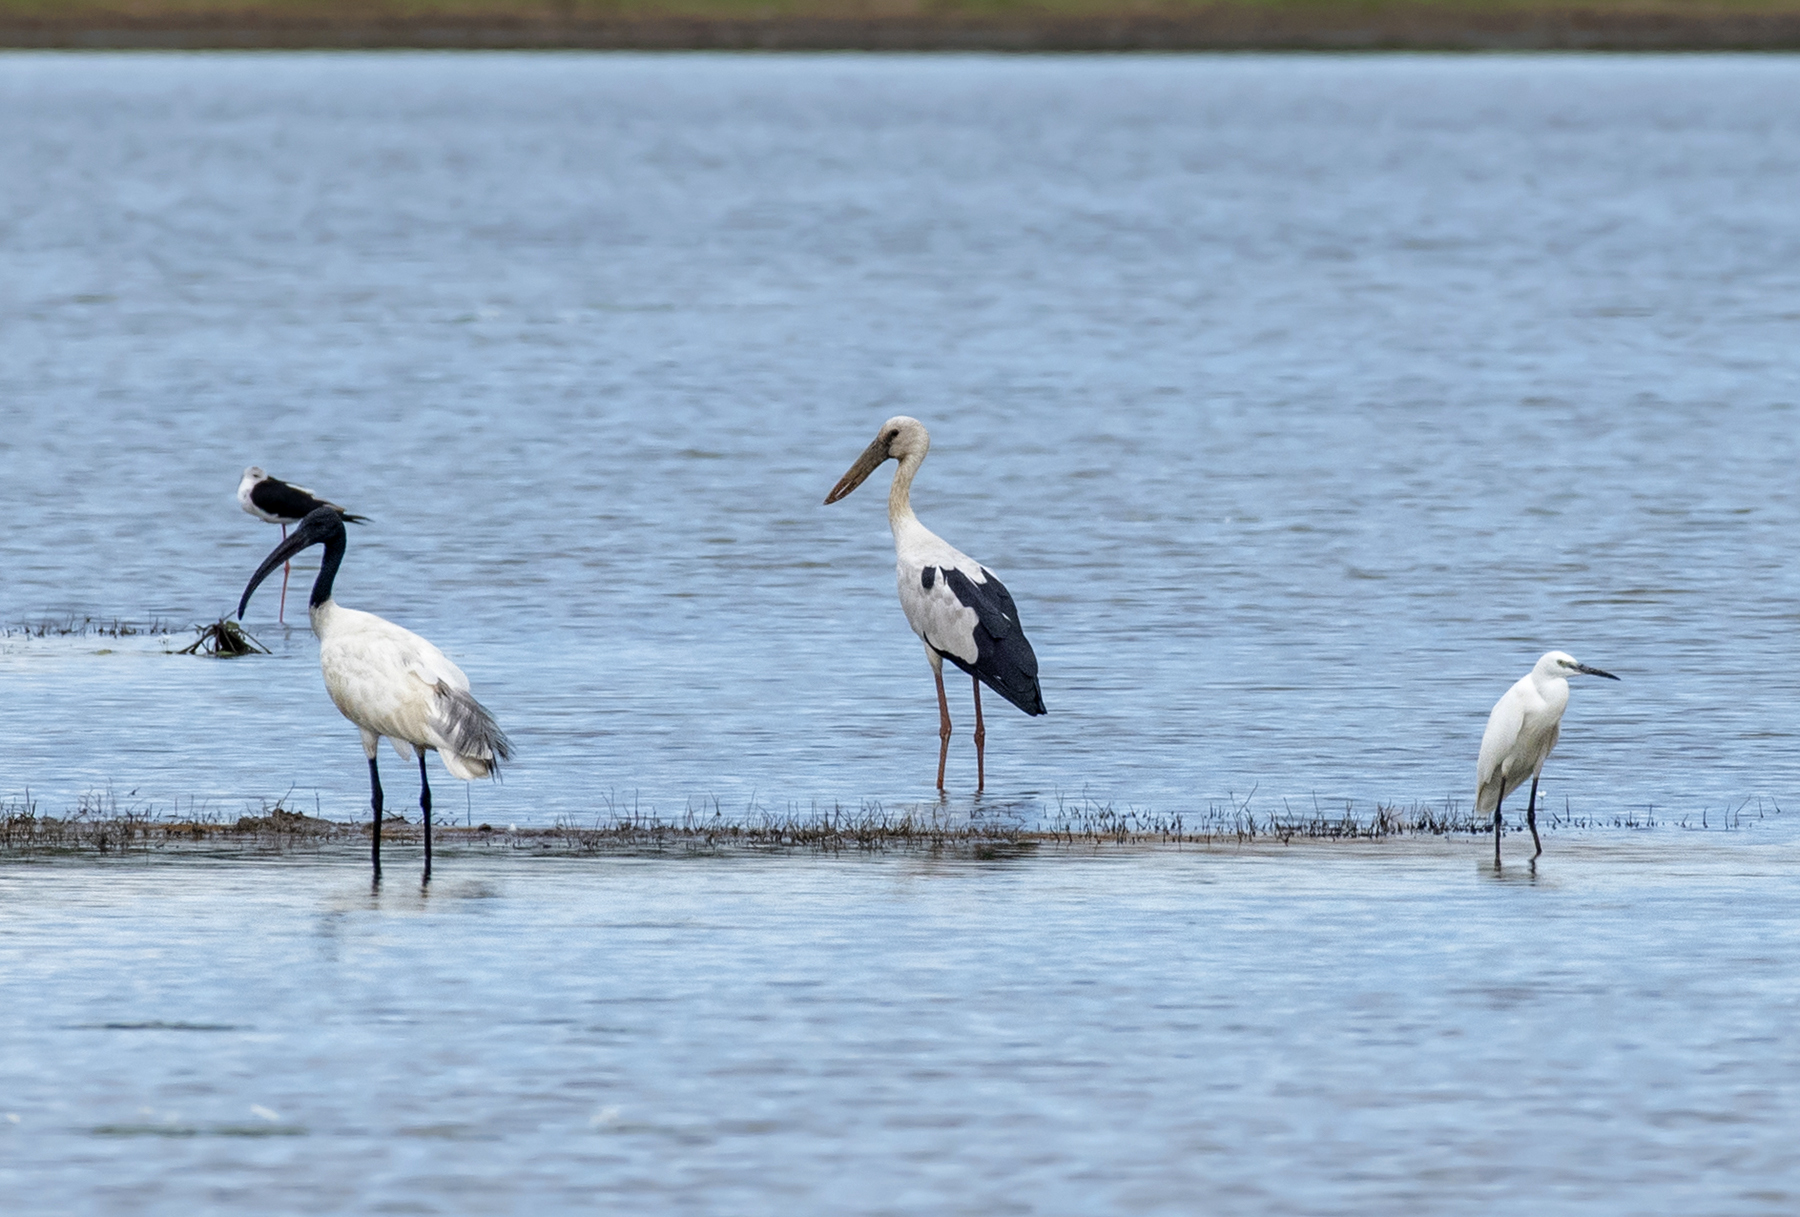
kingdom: Animalia
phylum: Chordata
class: Aves
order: Ciconiiformes
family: Ciconiidae
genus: Anastomus
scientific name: Anastomus oscitans
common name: Asian openbill
